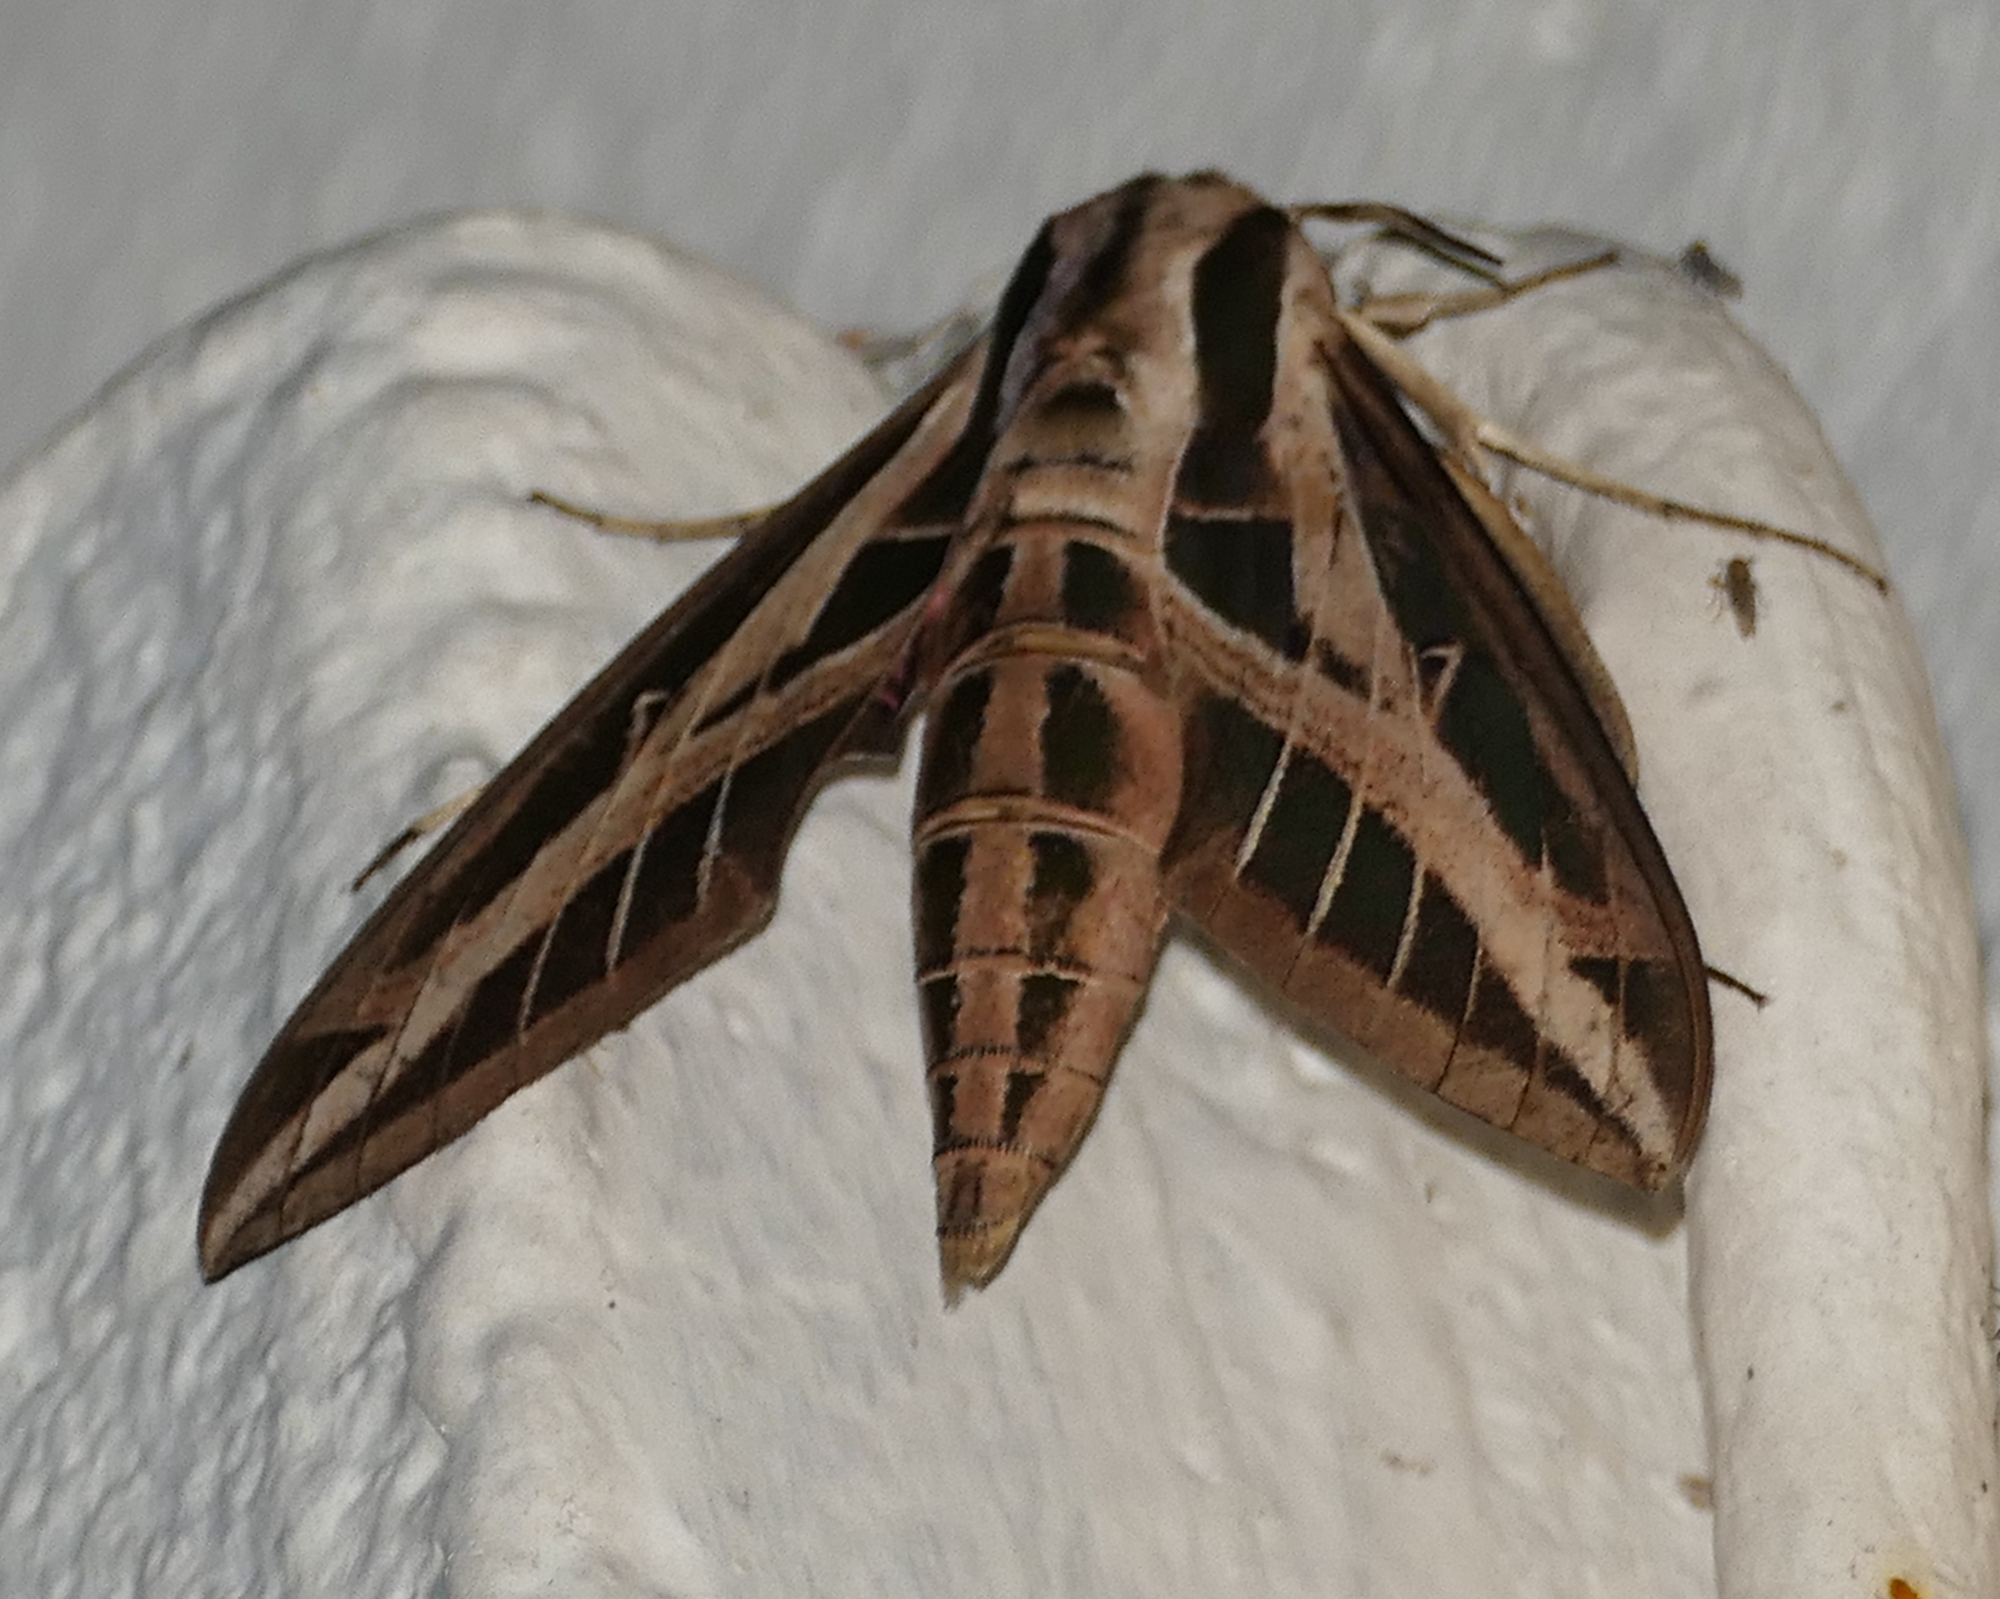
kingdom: Animalia
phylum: Arthropoda
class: Insecta
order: Lepidoptera
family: Sphingidae
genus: Eumorpha
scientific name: Eumorpha fasciatus
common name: Banded sphinx
